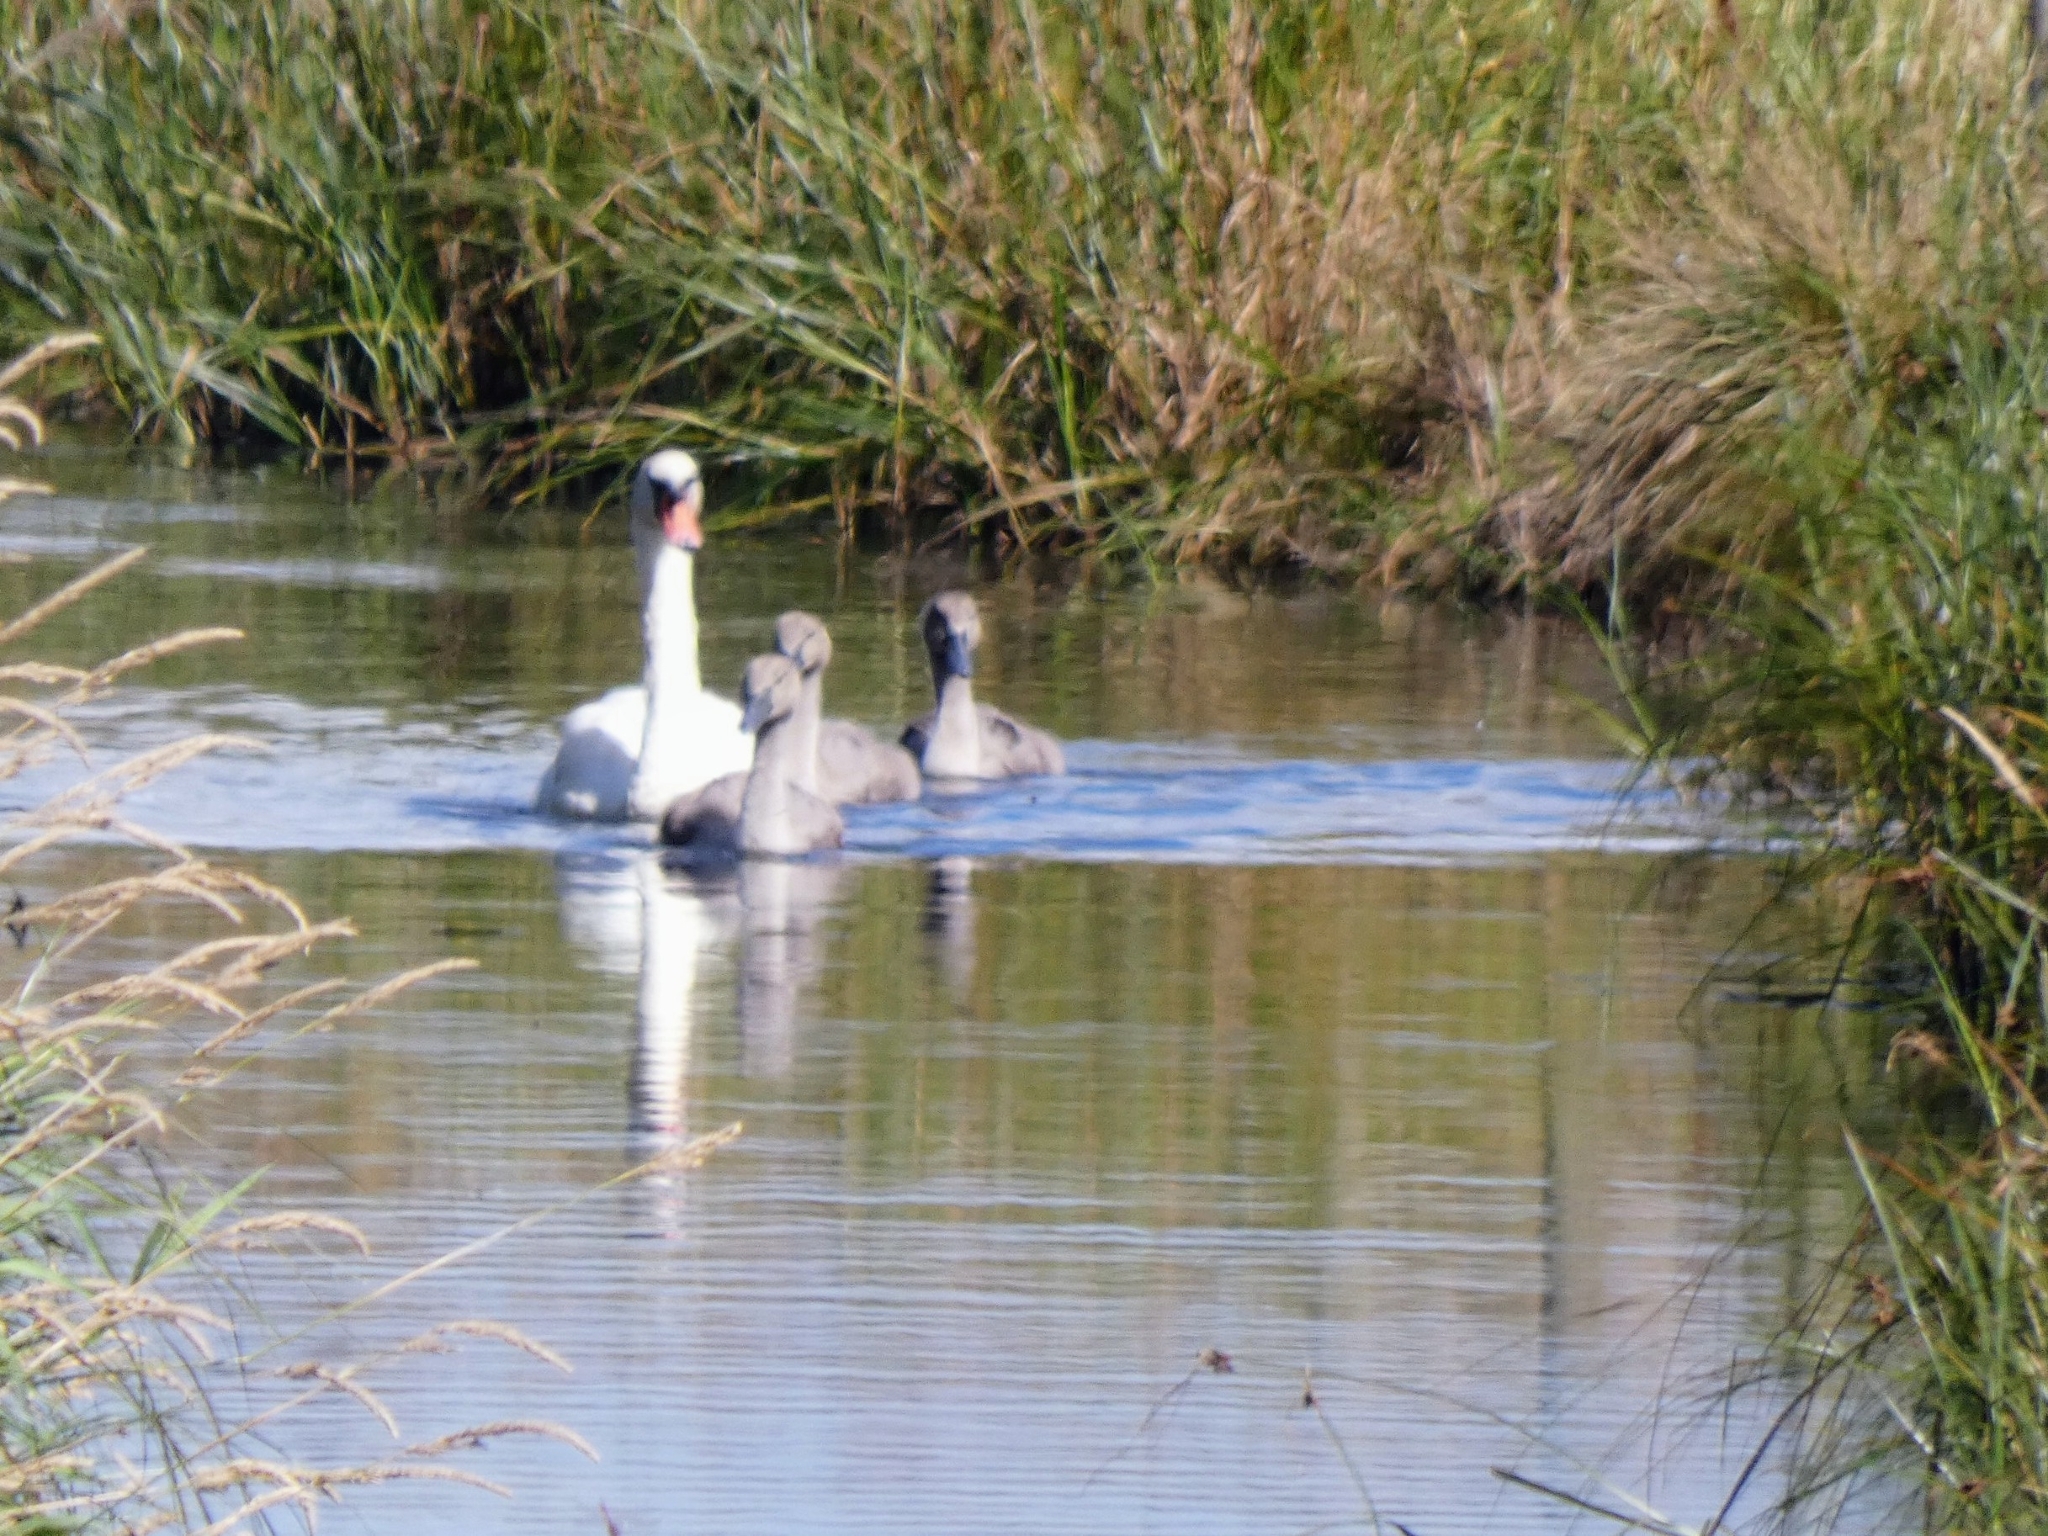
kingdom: Animalia
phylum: Chordata
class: Aves
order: Anseriformes
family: Anatidae
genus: Cygnus
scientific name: Cygnus olor
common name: Mute swan
